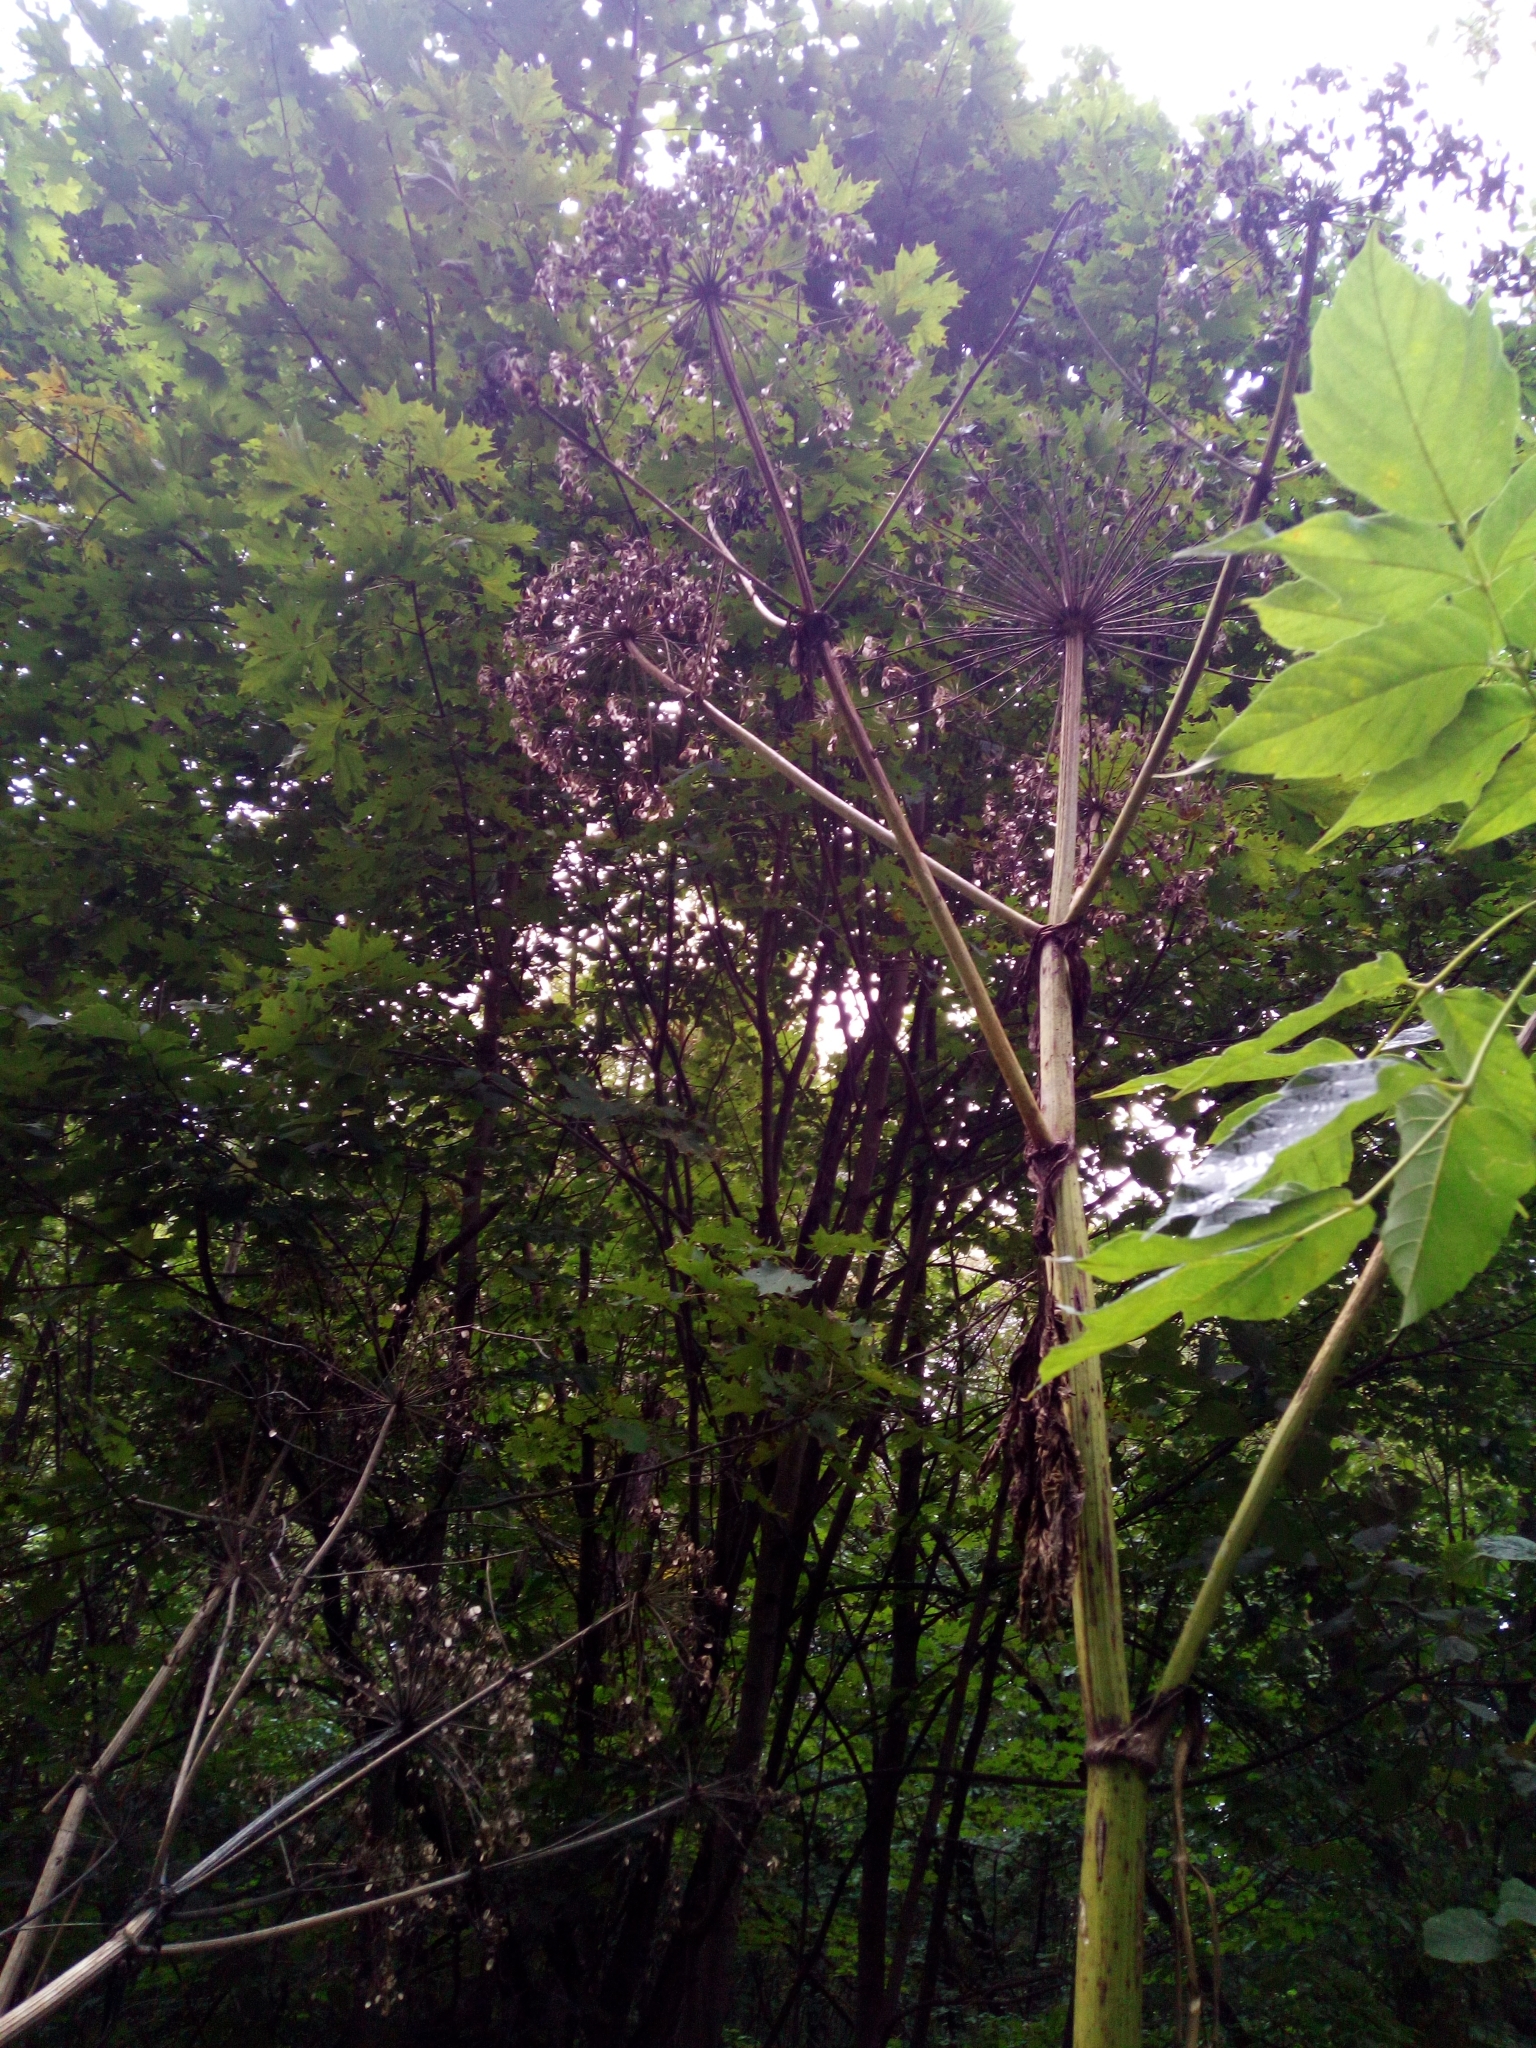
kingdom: Plantae
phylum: Tracheophyta
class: Magnoliopsida
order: Apiales
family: Apiaceae
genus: Heracleum
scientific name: Heracleum sosnowskyi
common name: Sosnowsky's hogweed
